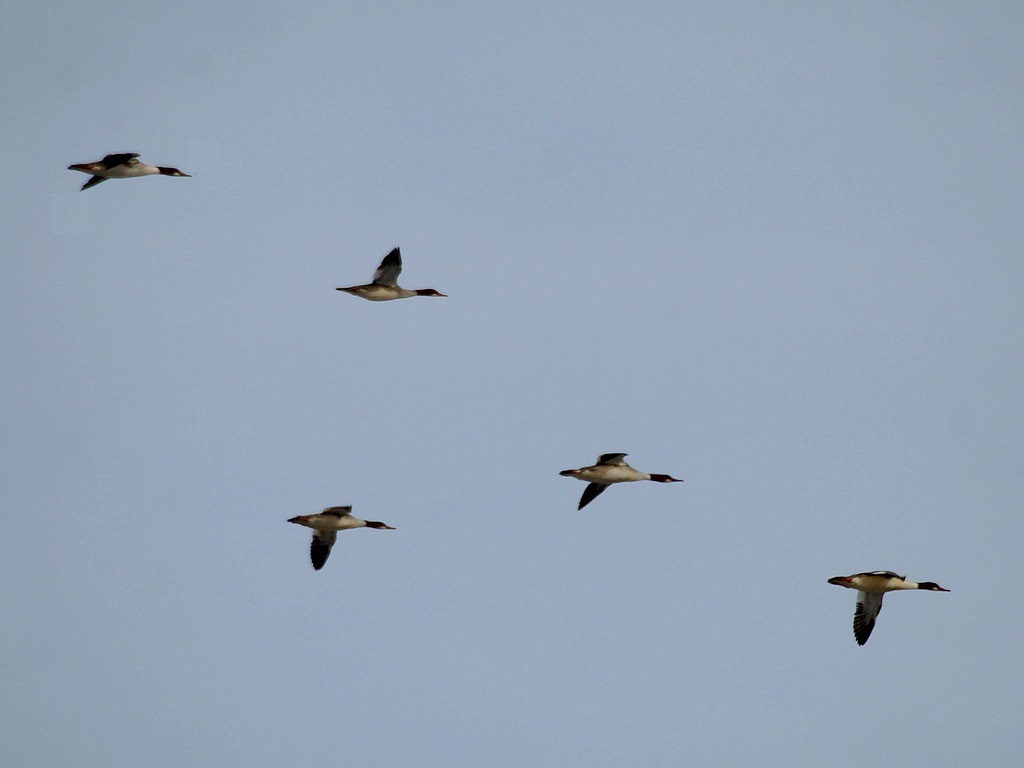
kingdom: Animalia
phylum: Chordata
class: Aves
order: Anseriformes
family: Anatidae
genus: Mergus
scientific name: Mergus merganser
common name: Common merganser
